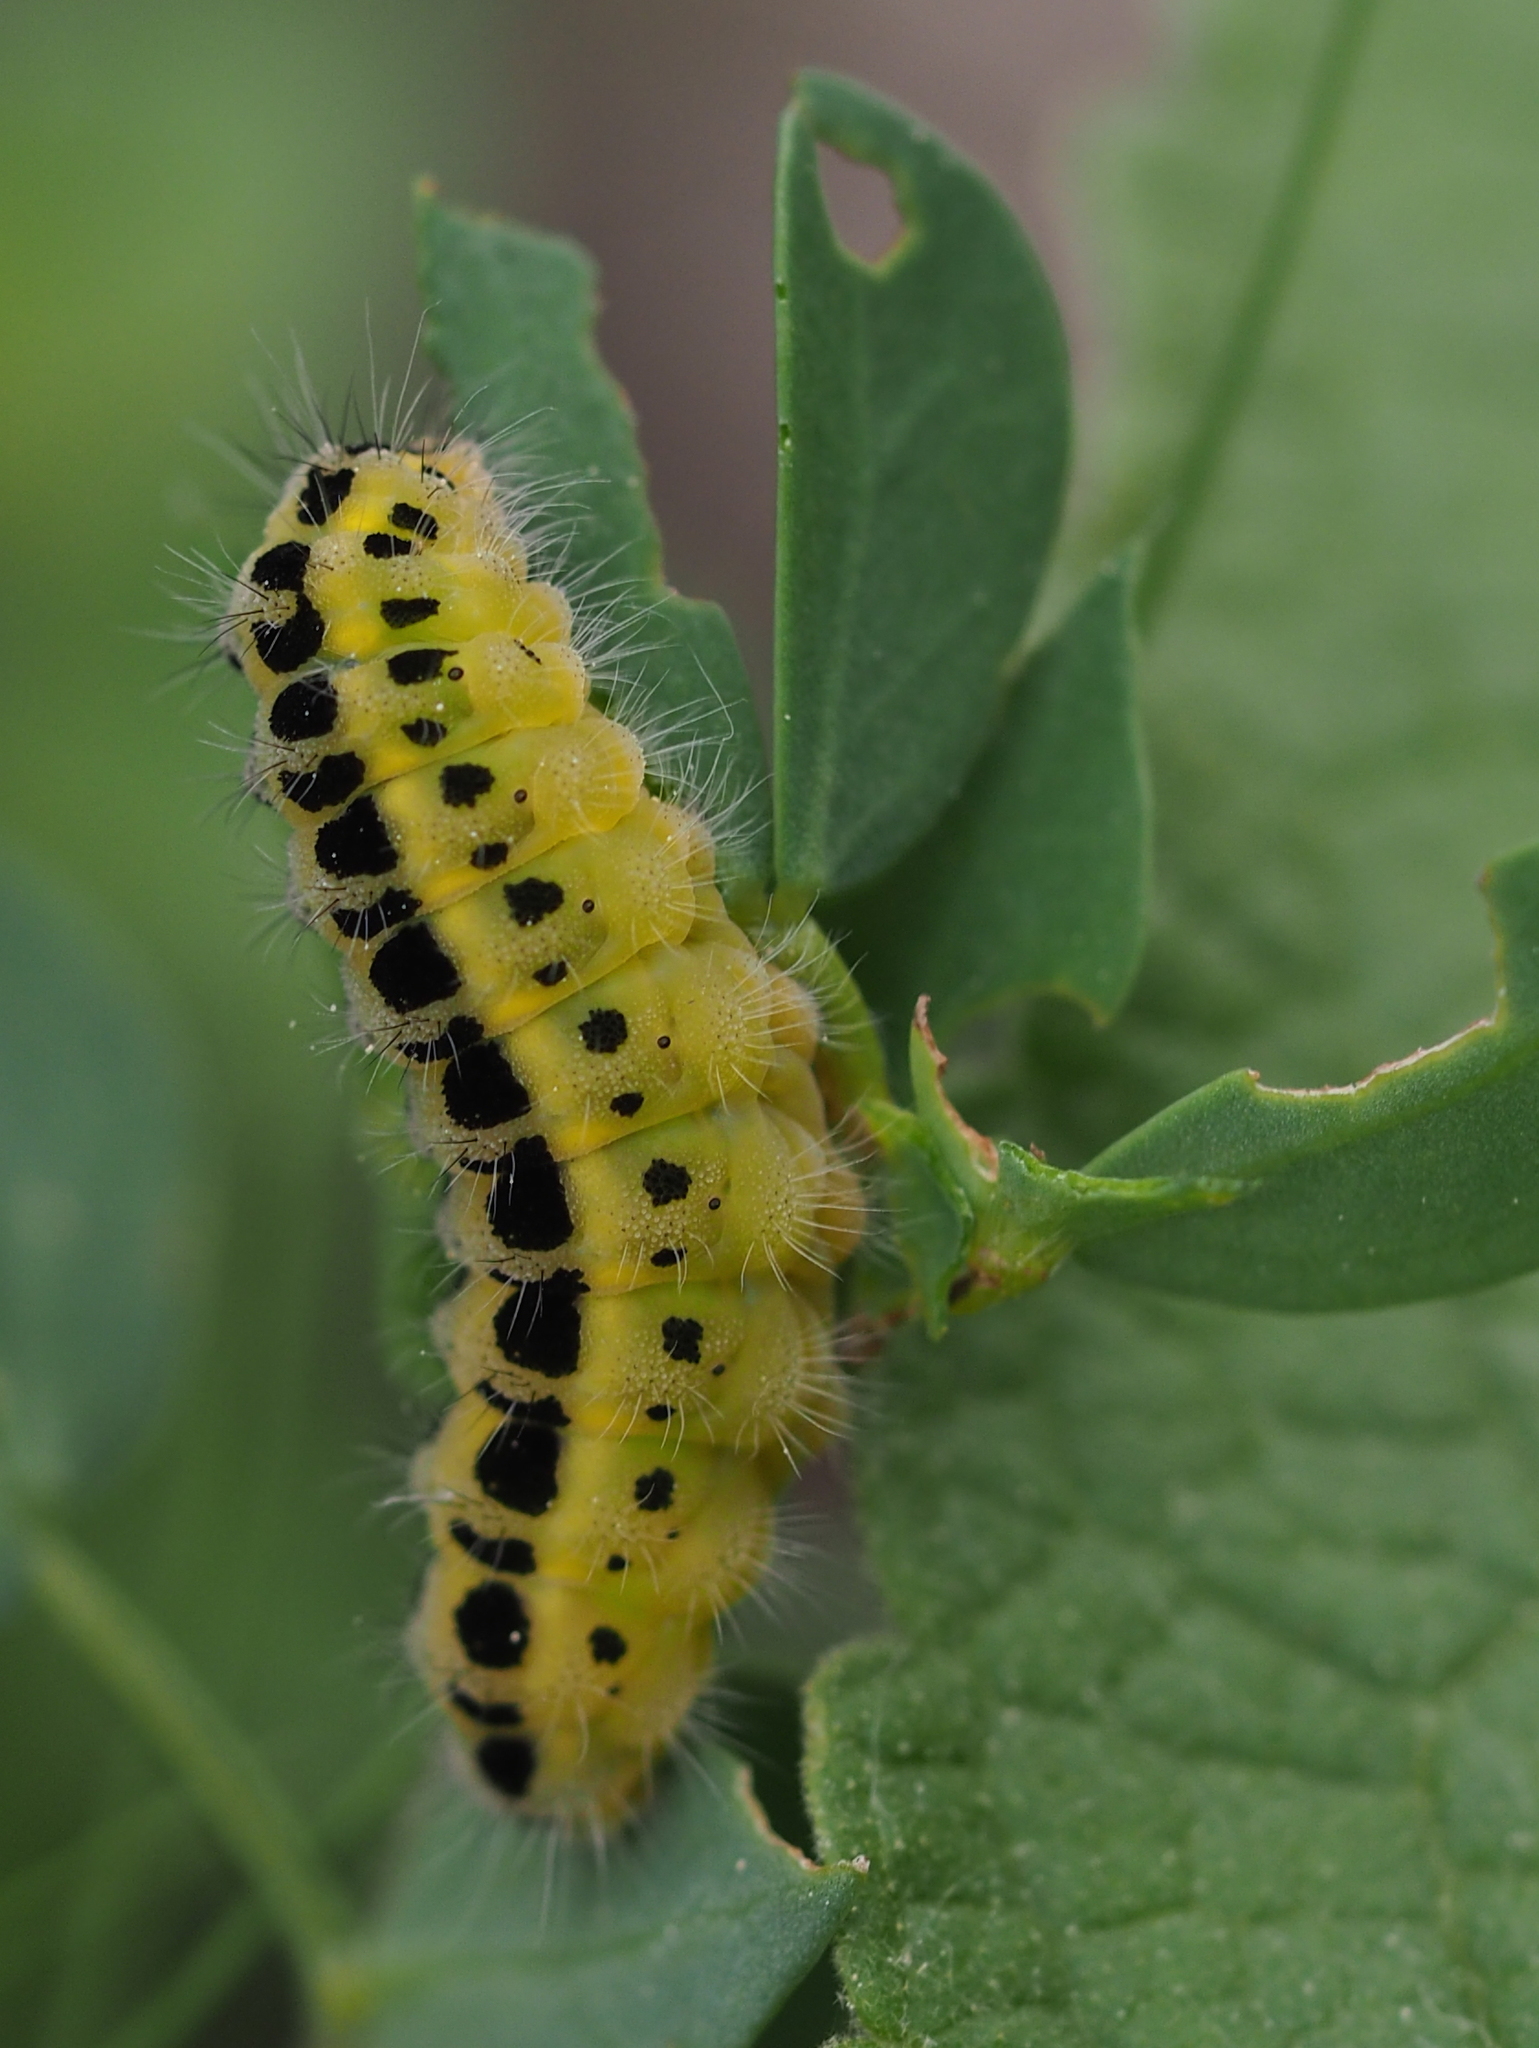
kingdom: Animalia
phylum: Arthropoda
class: Insecta
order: Lepidoptera
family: Zygaenidae
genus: Zygaena
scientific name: Zygaena filipendulae
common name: Six-spot burnet
